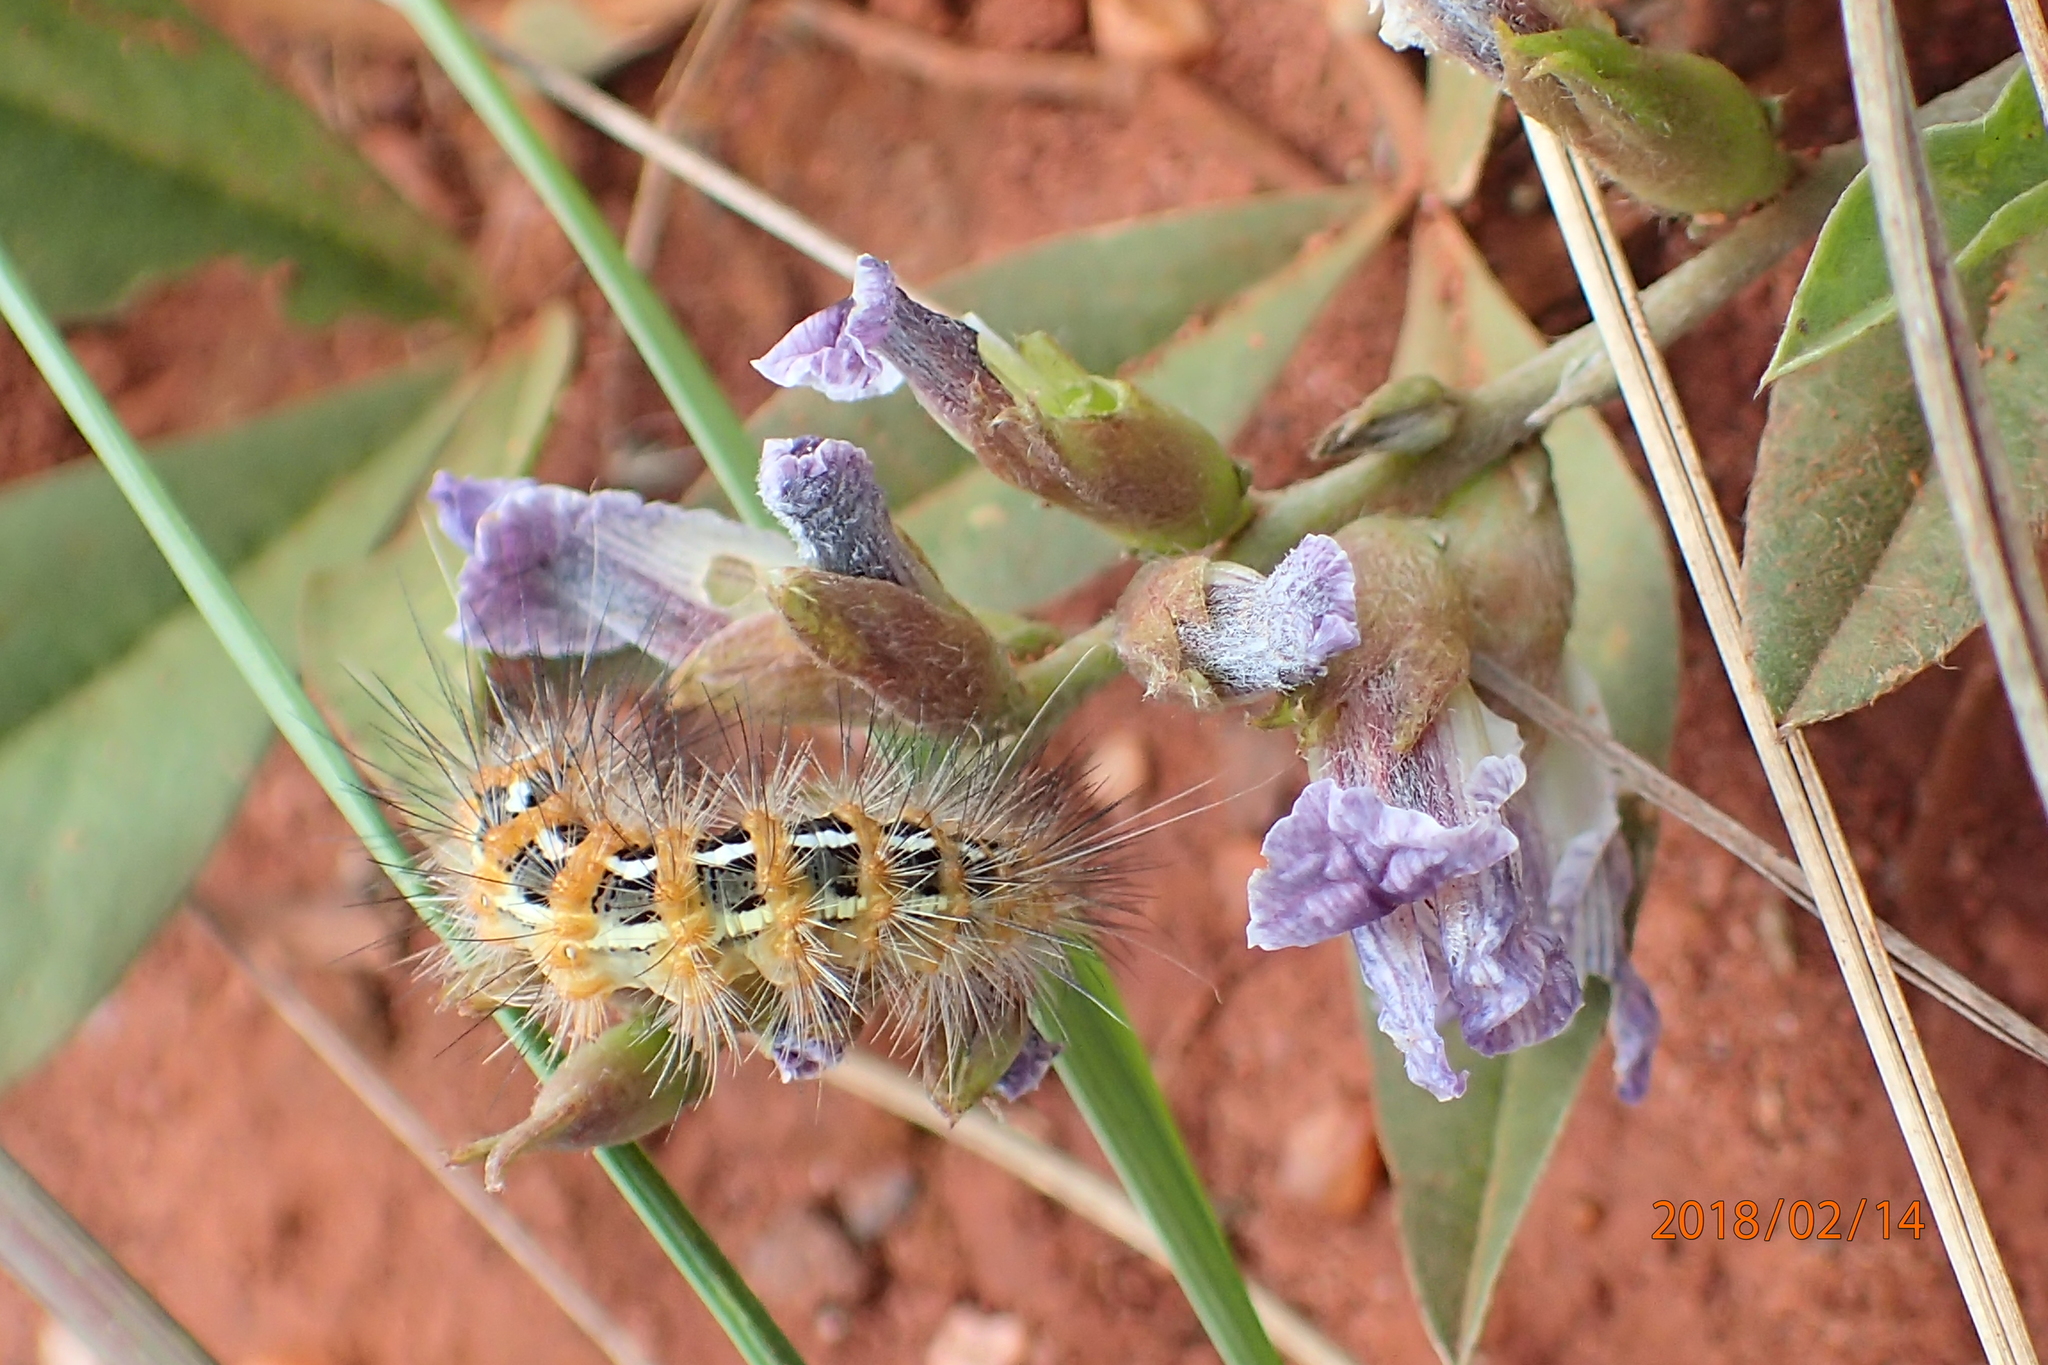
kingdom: Plantae
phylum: Tracheophyta
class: Magnoliopsida
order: Fabales
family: Fabaceae
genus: Pearsonia
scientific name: Pearsonia grandifolia
